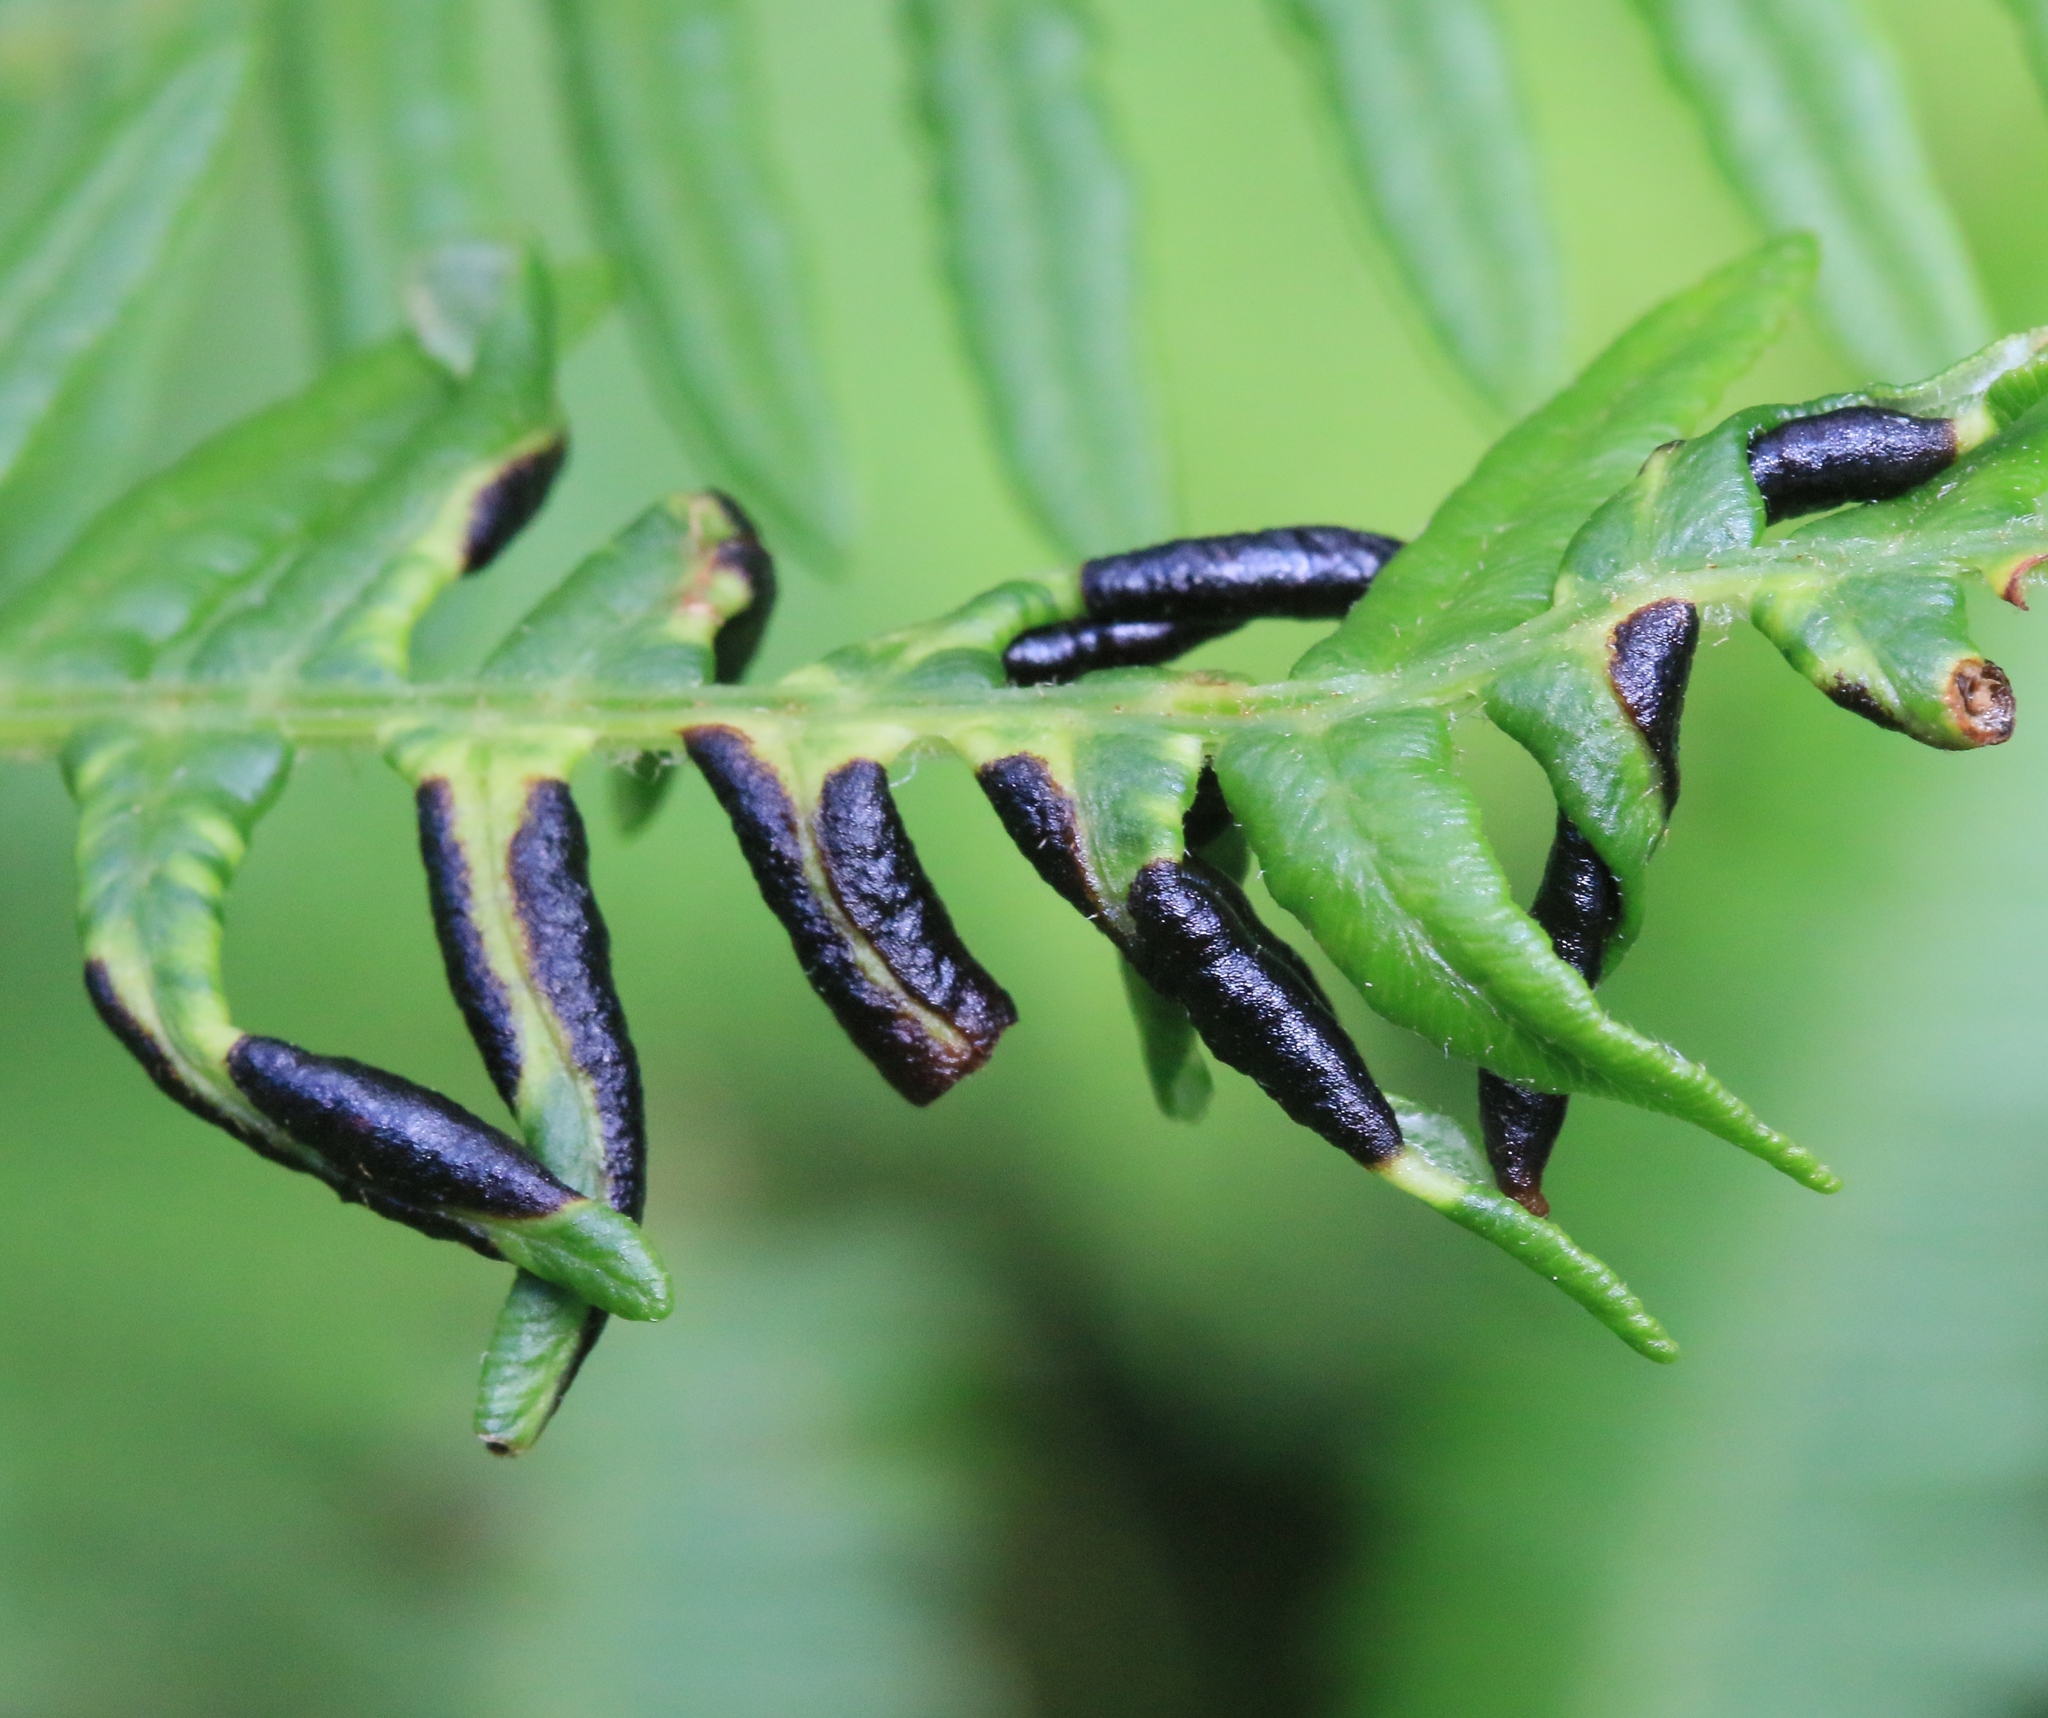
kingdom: Animalia
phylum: Arthropoda
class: Insecta
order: Diptera
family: Cecidomyiidae
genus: Dasineura
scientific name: Dasineura pteridis
